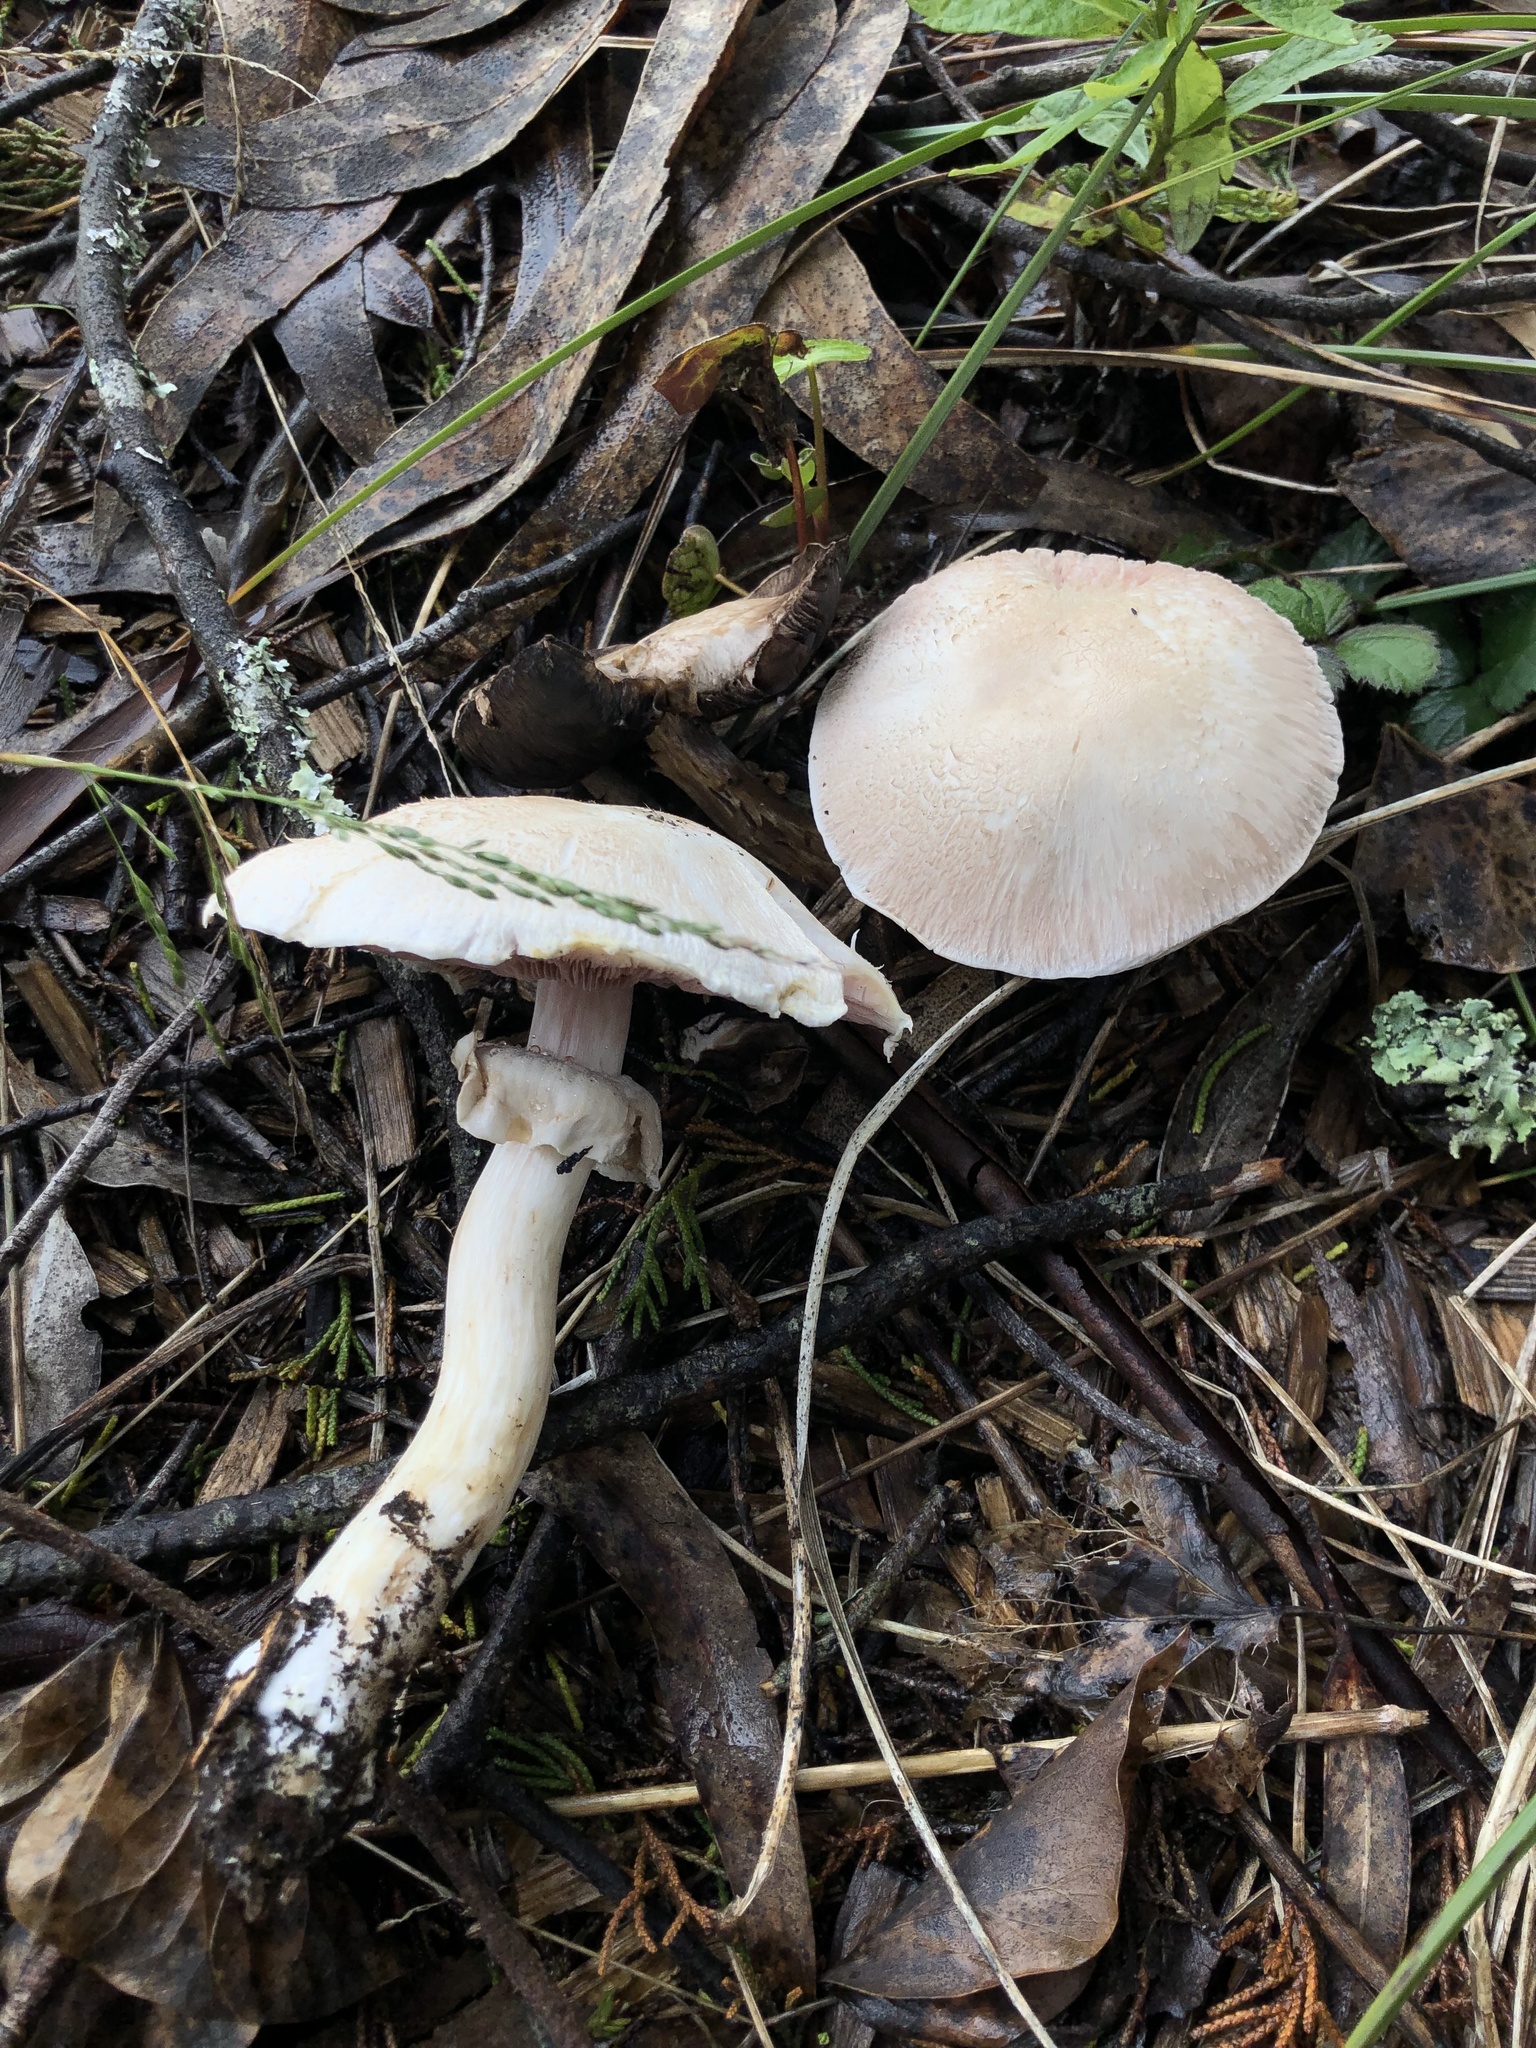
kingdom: Fungi
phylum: Basidiomycota
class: Agaricomycetes
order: Agaricales
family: Agaricaceae
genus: Agaricus
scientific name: Agaricus californicus
